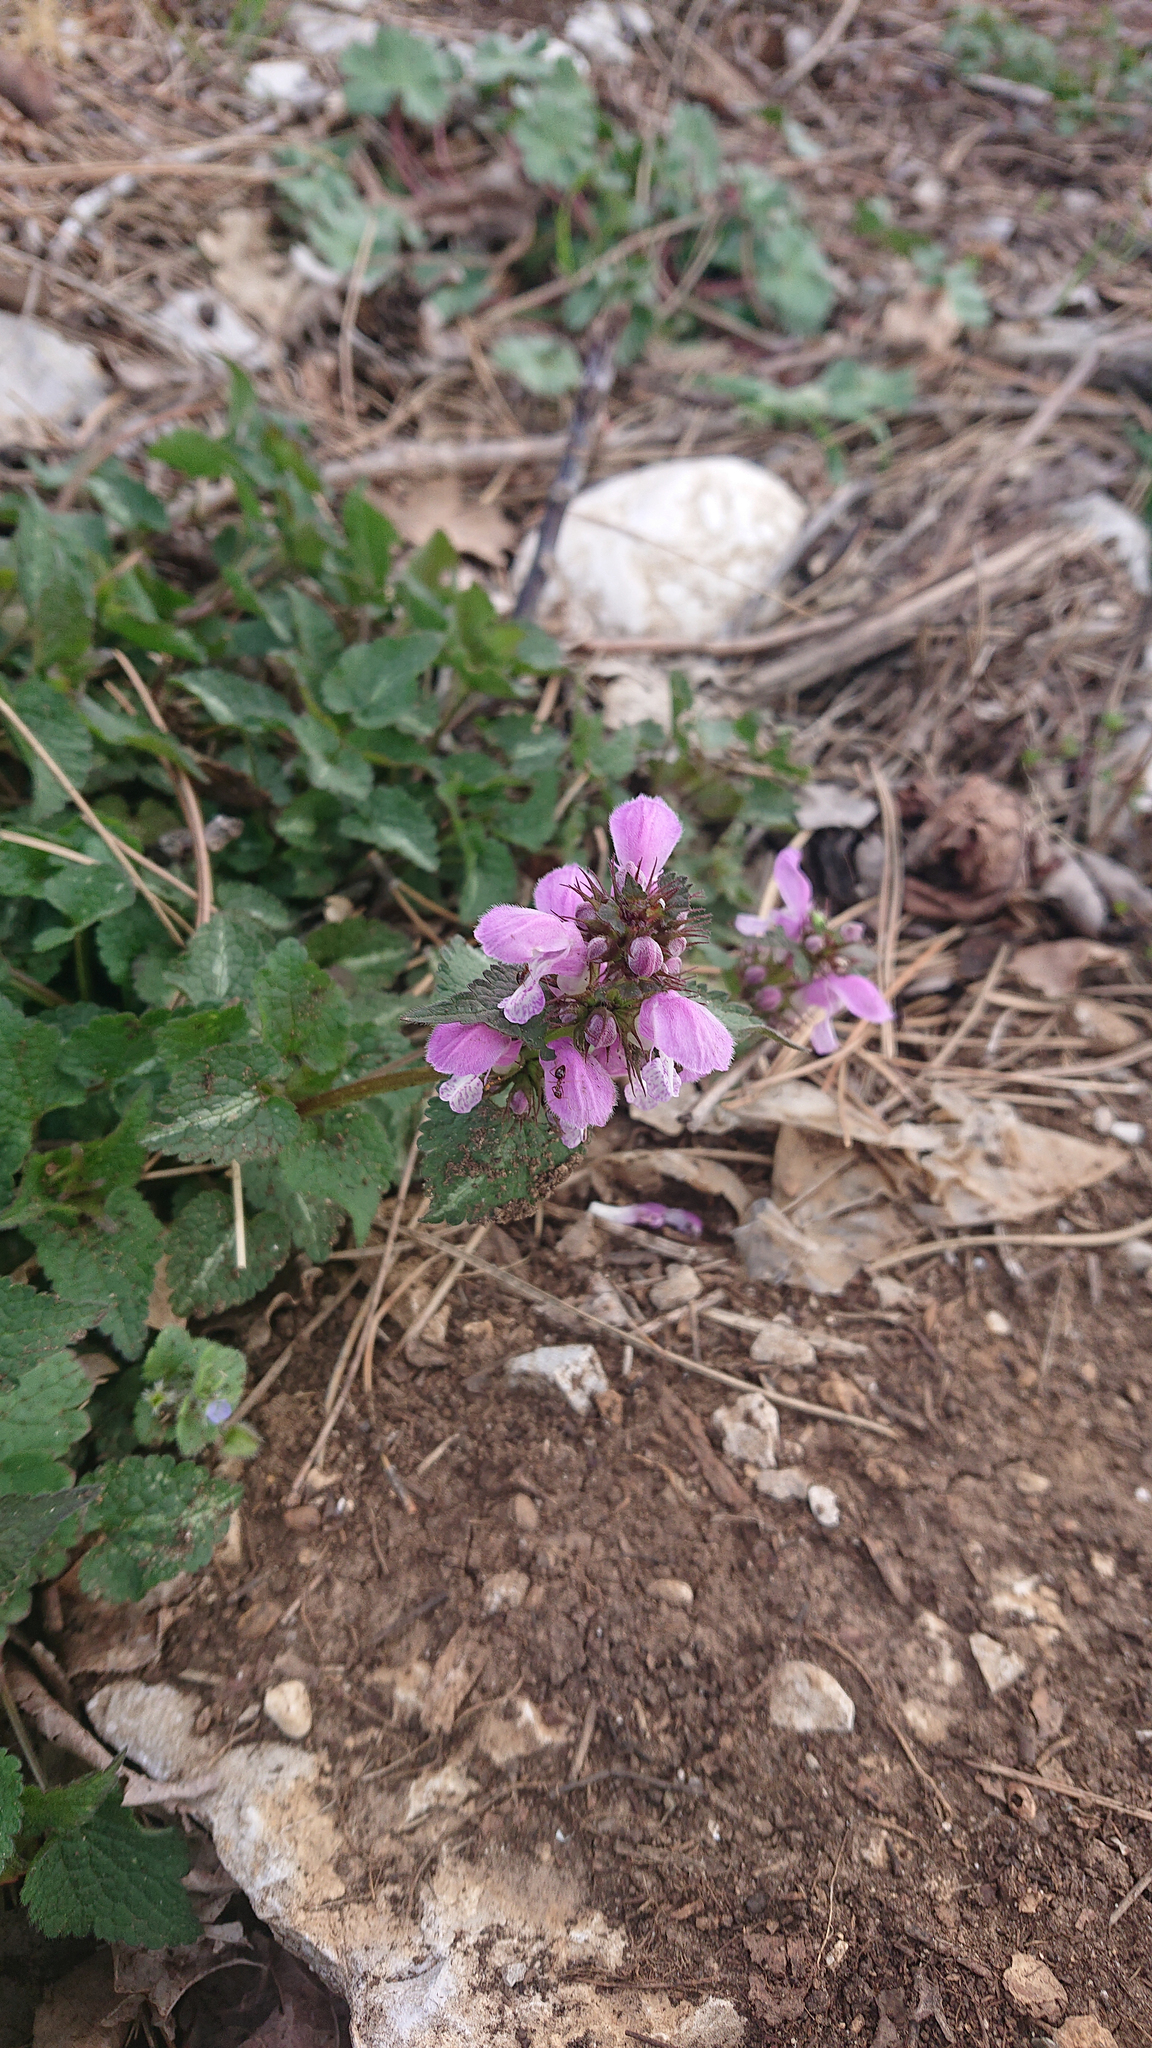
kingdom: Plantae
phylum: Tracheophyta
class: Magnoliopsida
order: Lamiales
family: Lamiaceae
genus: Lamium
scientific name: Lamium maculatum
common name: Spotted dead-nettle
